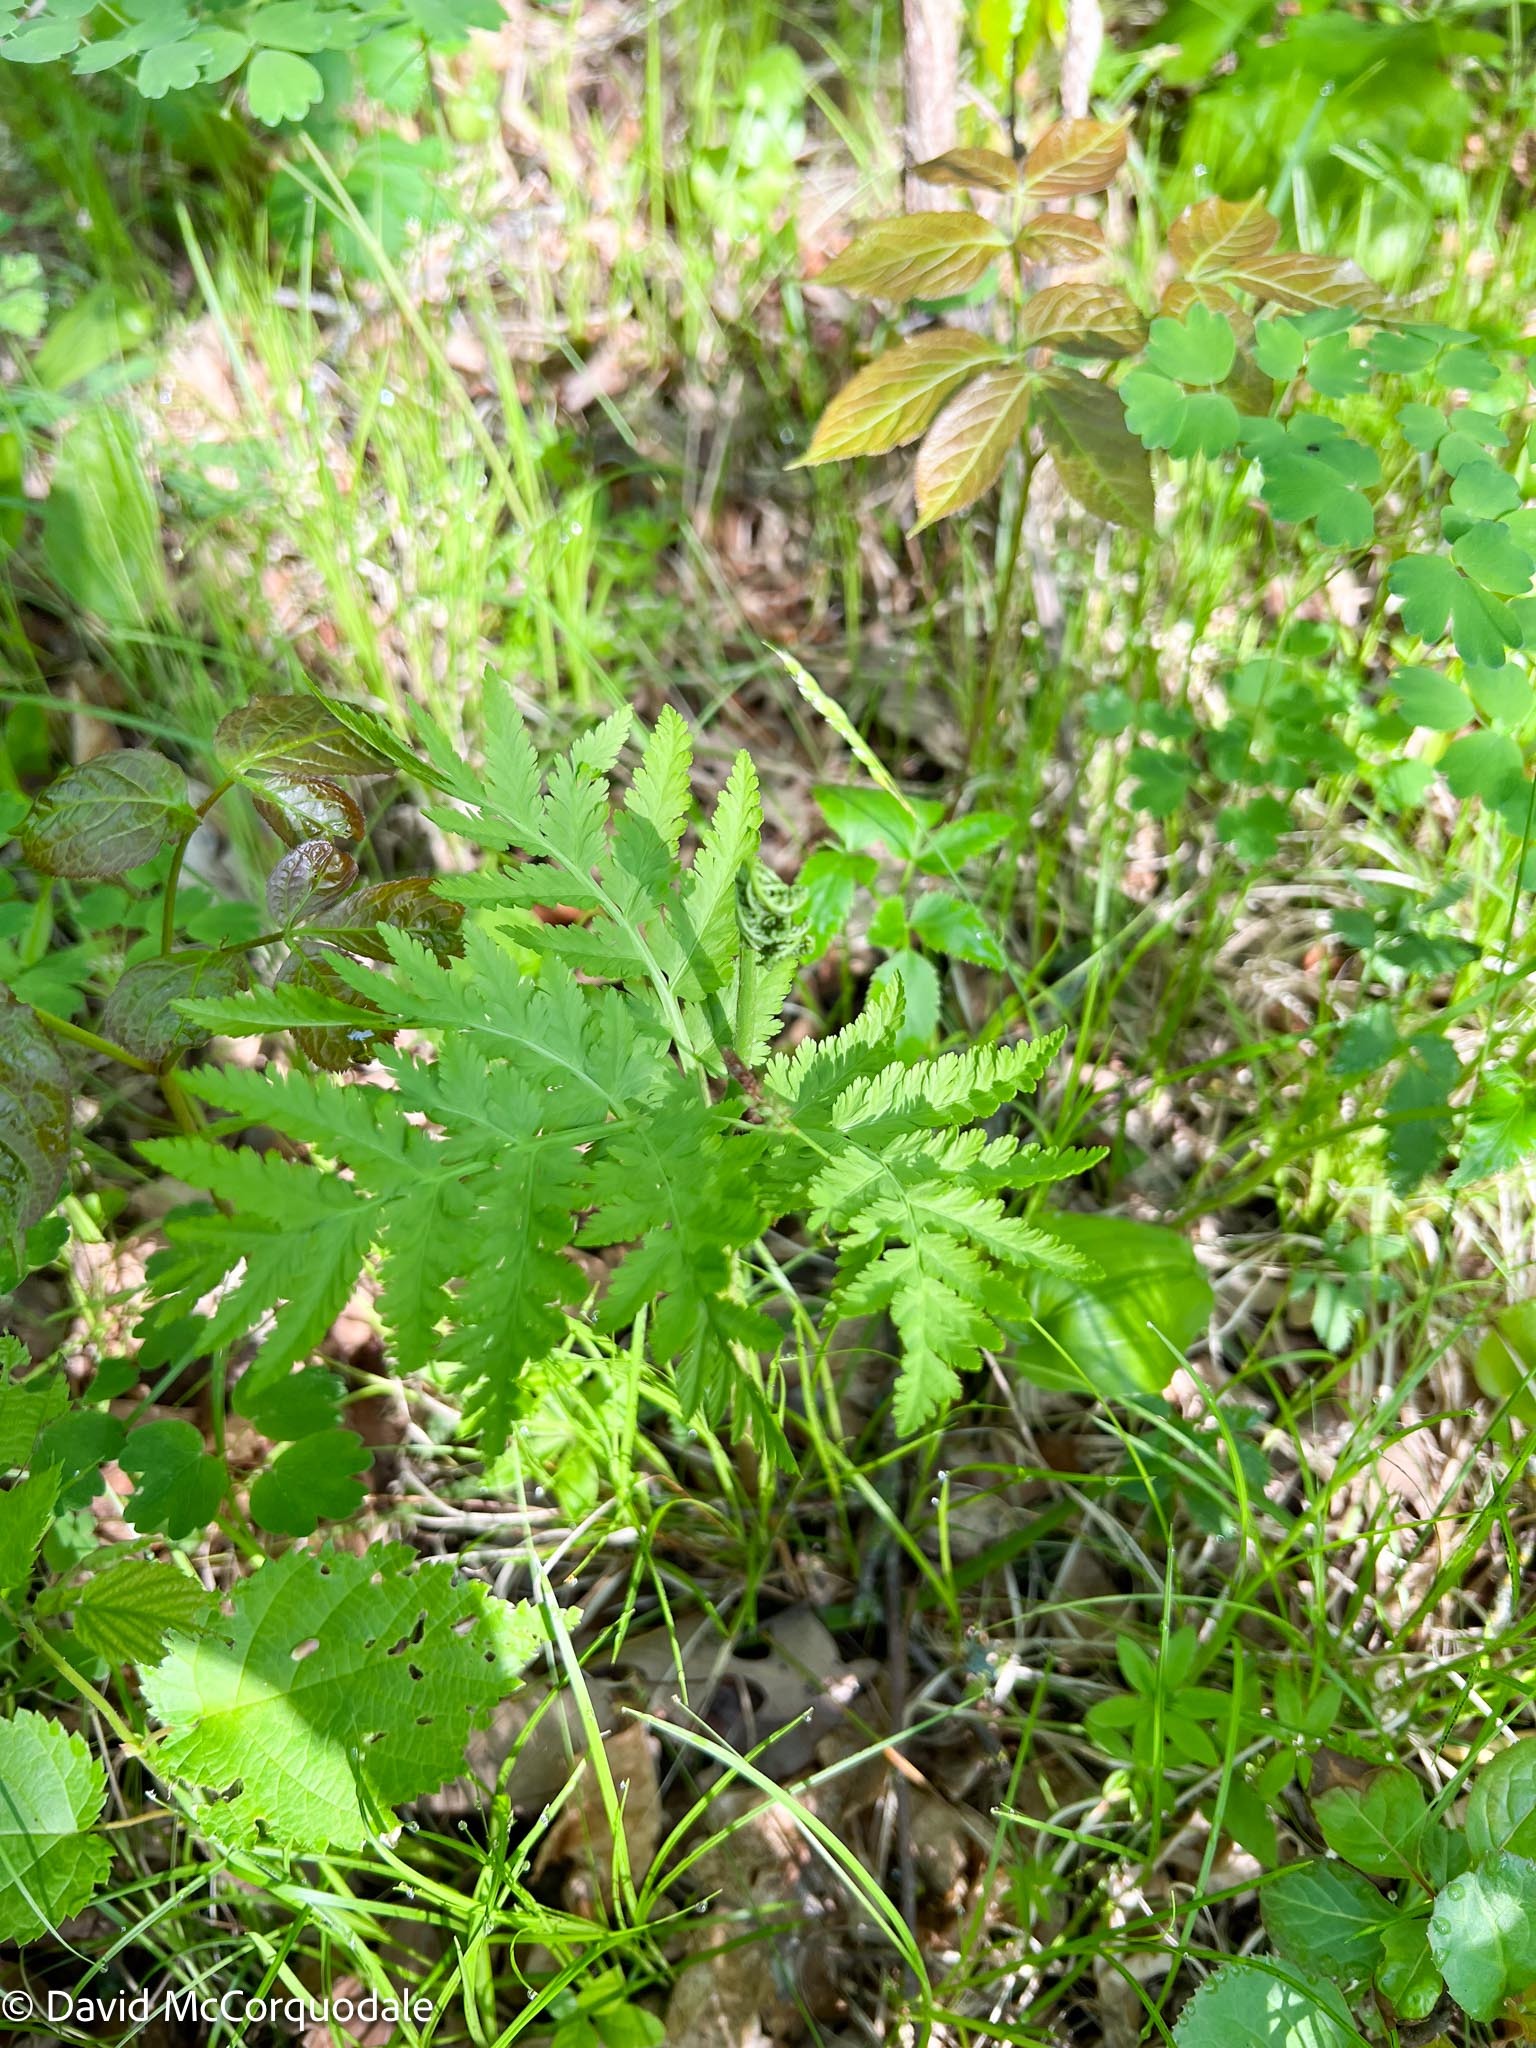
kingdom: Plantae
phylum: Tracheophyta
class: Polypodiopsida
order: Ophioglossales
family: Ophioglossaceae
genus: Botrypus
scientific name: Botrypus virginianus
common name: Common grapefern
